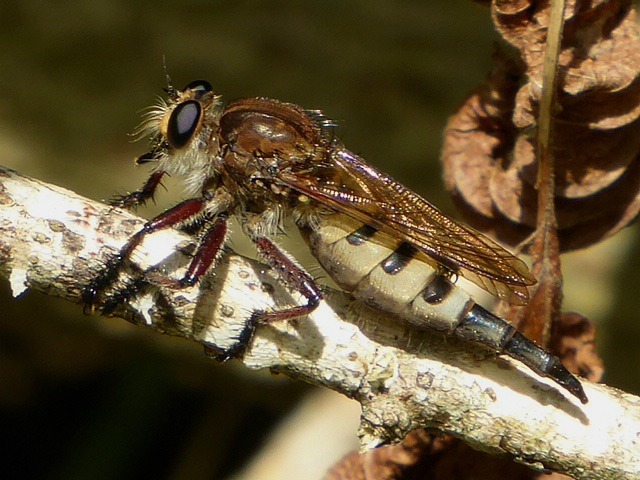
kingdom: Animalia
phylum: Arthropoda
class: Insecta
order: Diptera
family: Asilidae
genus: Promachus
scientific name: Promachus hinei
